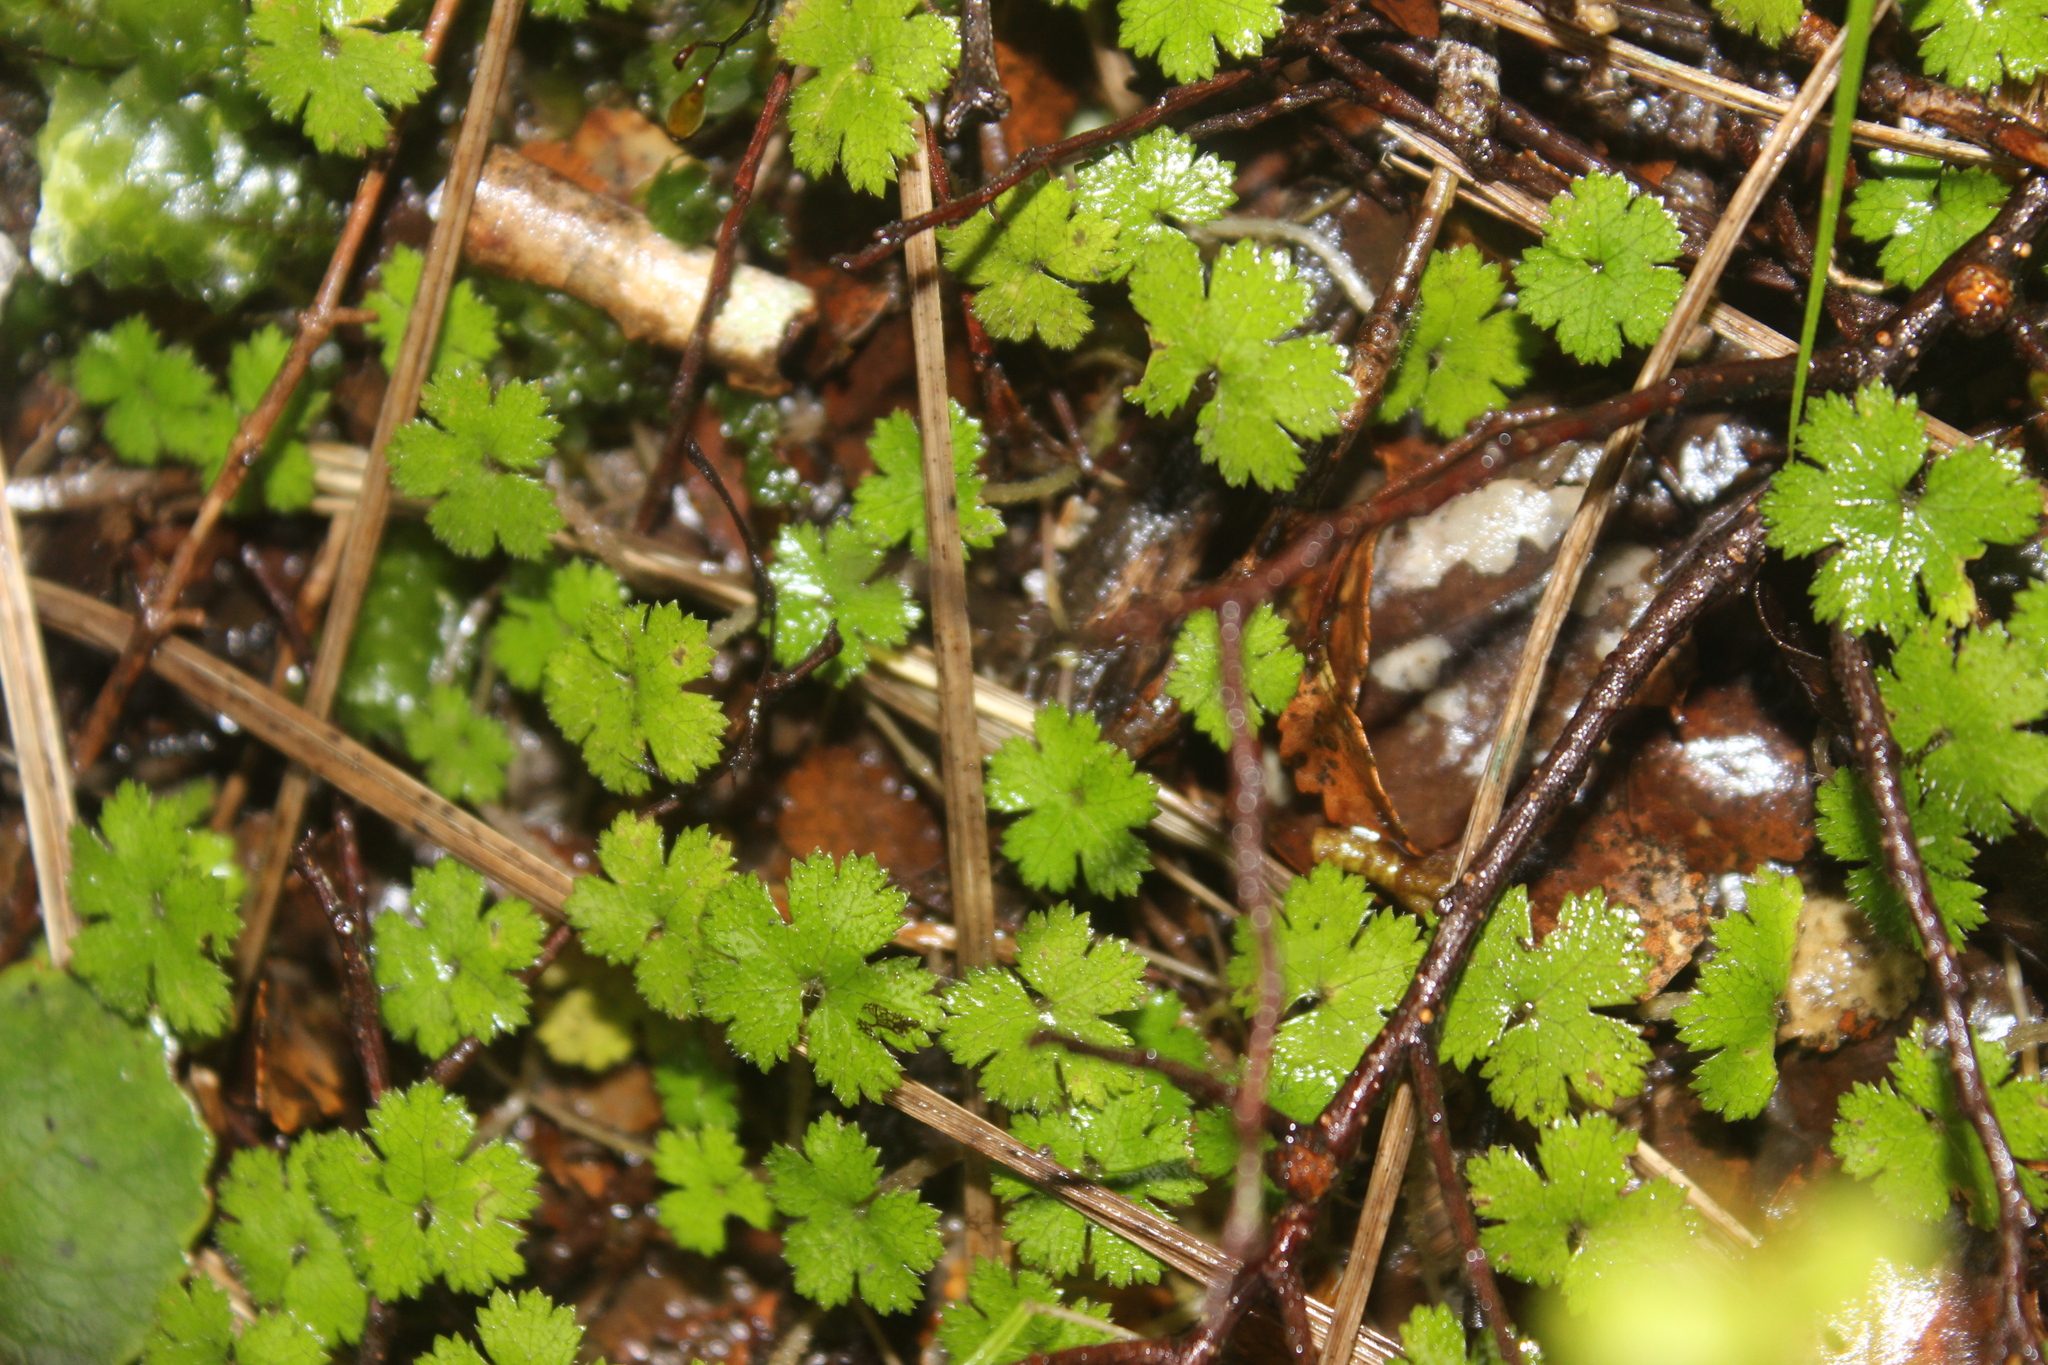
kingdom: Plantae
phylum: Tracheophyta
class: Magnoliopsida
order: Apiales
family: Araliaceae
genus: Hydrocotyle
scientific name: Hydrocotyle elongata
